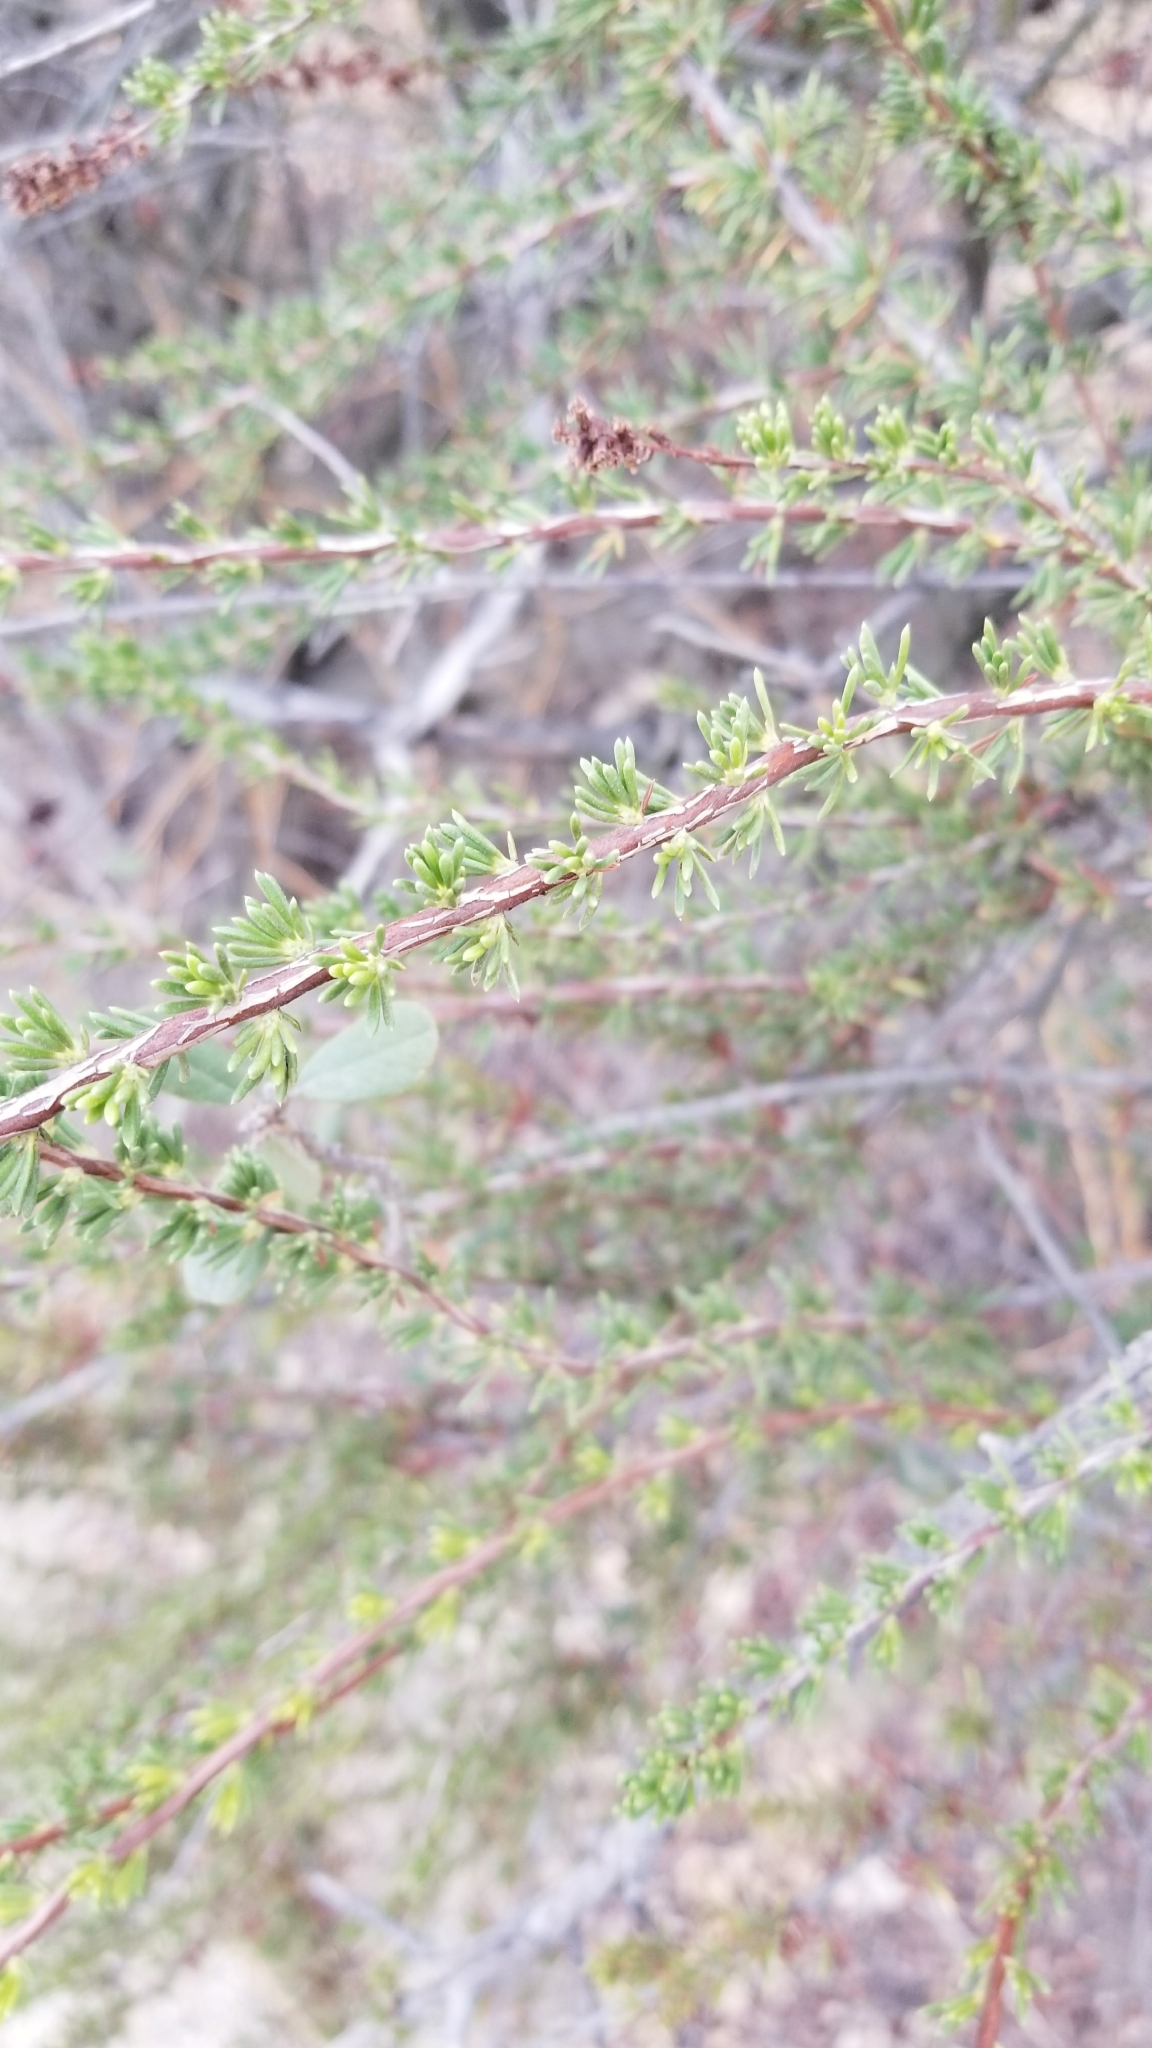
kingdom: Plantae
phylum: Tracheophyta
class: Magnoliopsida
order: Rosales
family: Rosaceae
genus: Adenostoma
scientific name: Adenostoma fasciculatum
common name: Chamise
